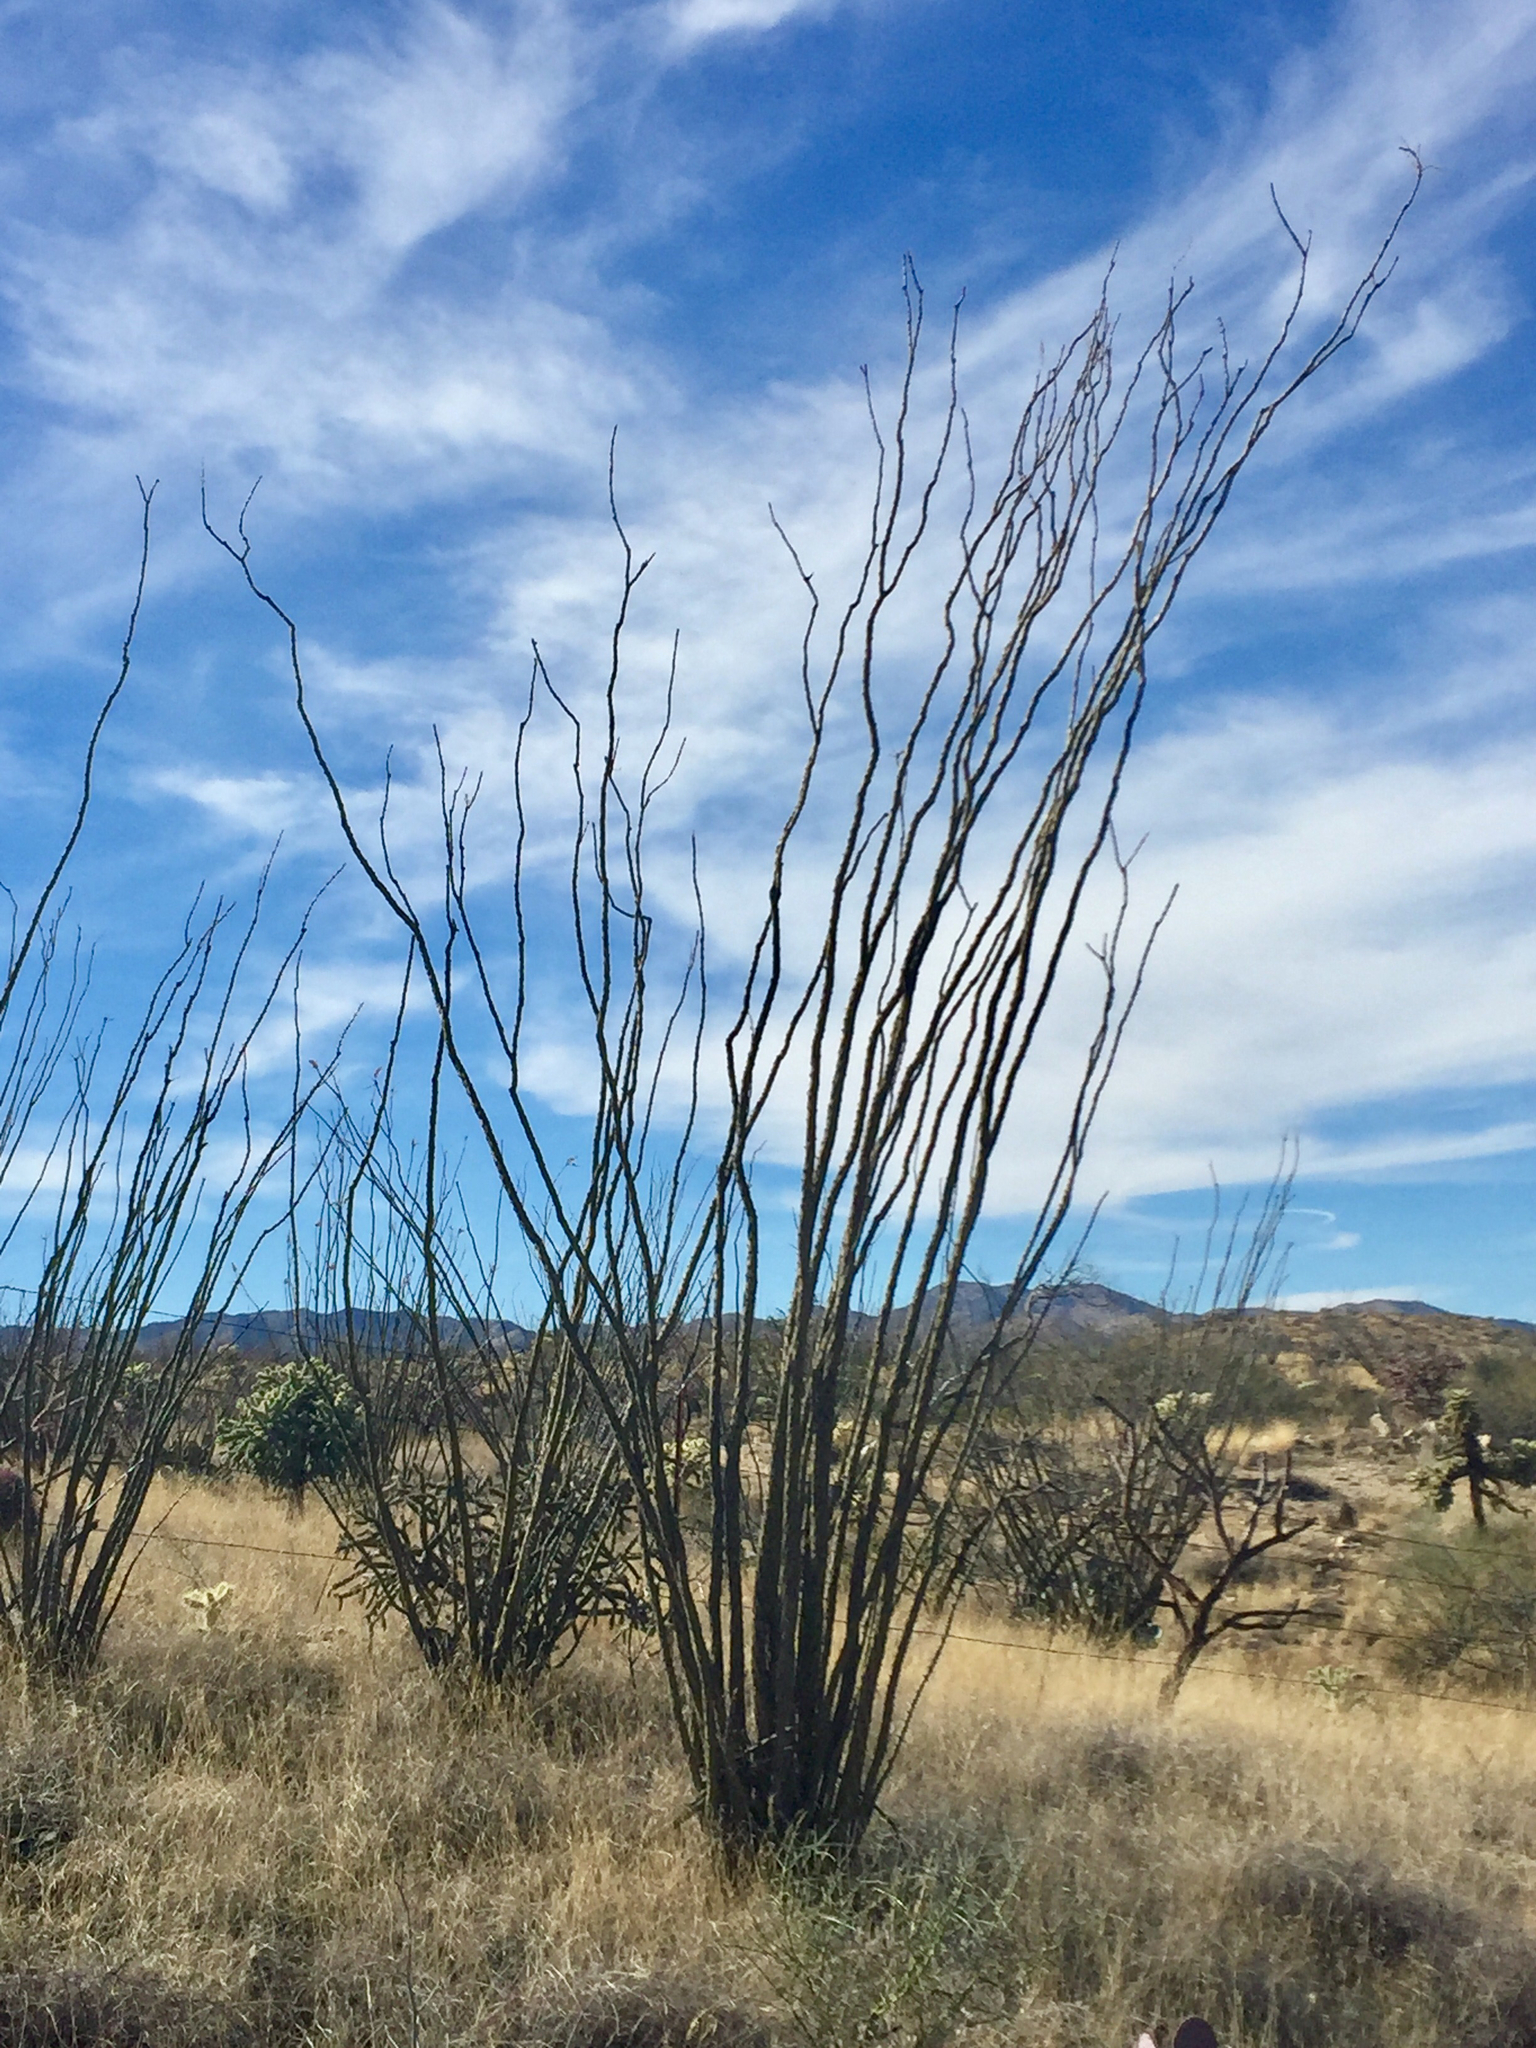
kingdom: Plantae
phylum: Tracheophyta
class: Magnoliopsida
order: Ericales
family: Fouquieriaceae
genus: Fouquieria
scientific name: Fouquieria splendens
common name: Vine-cactus
